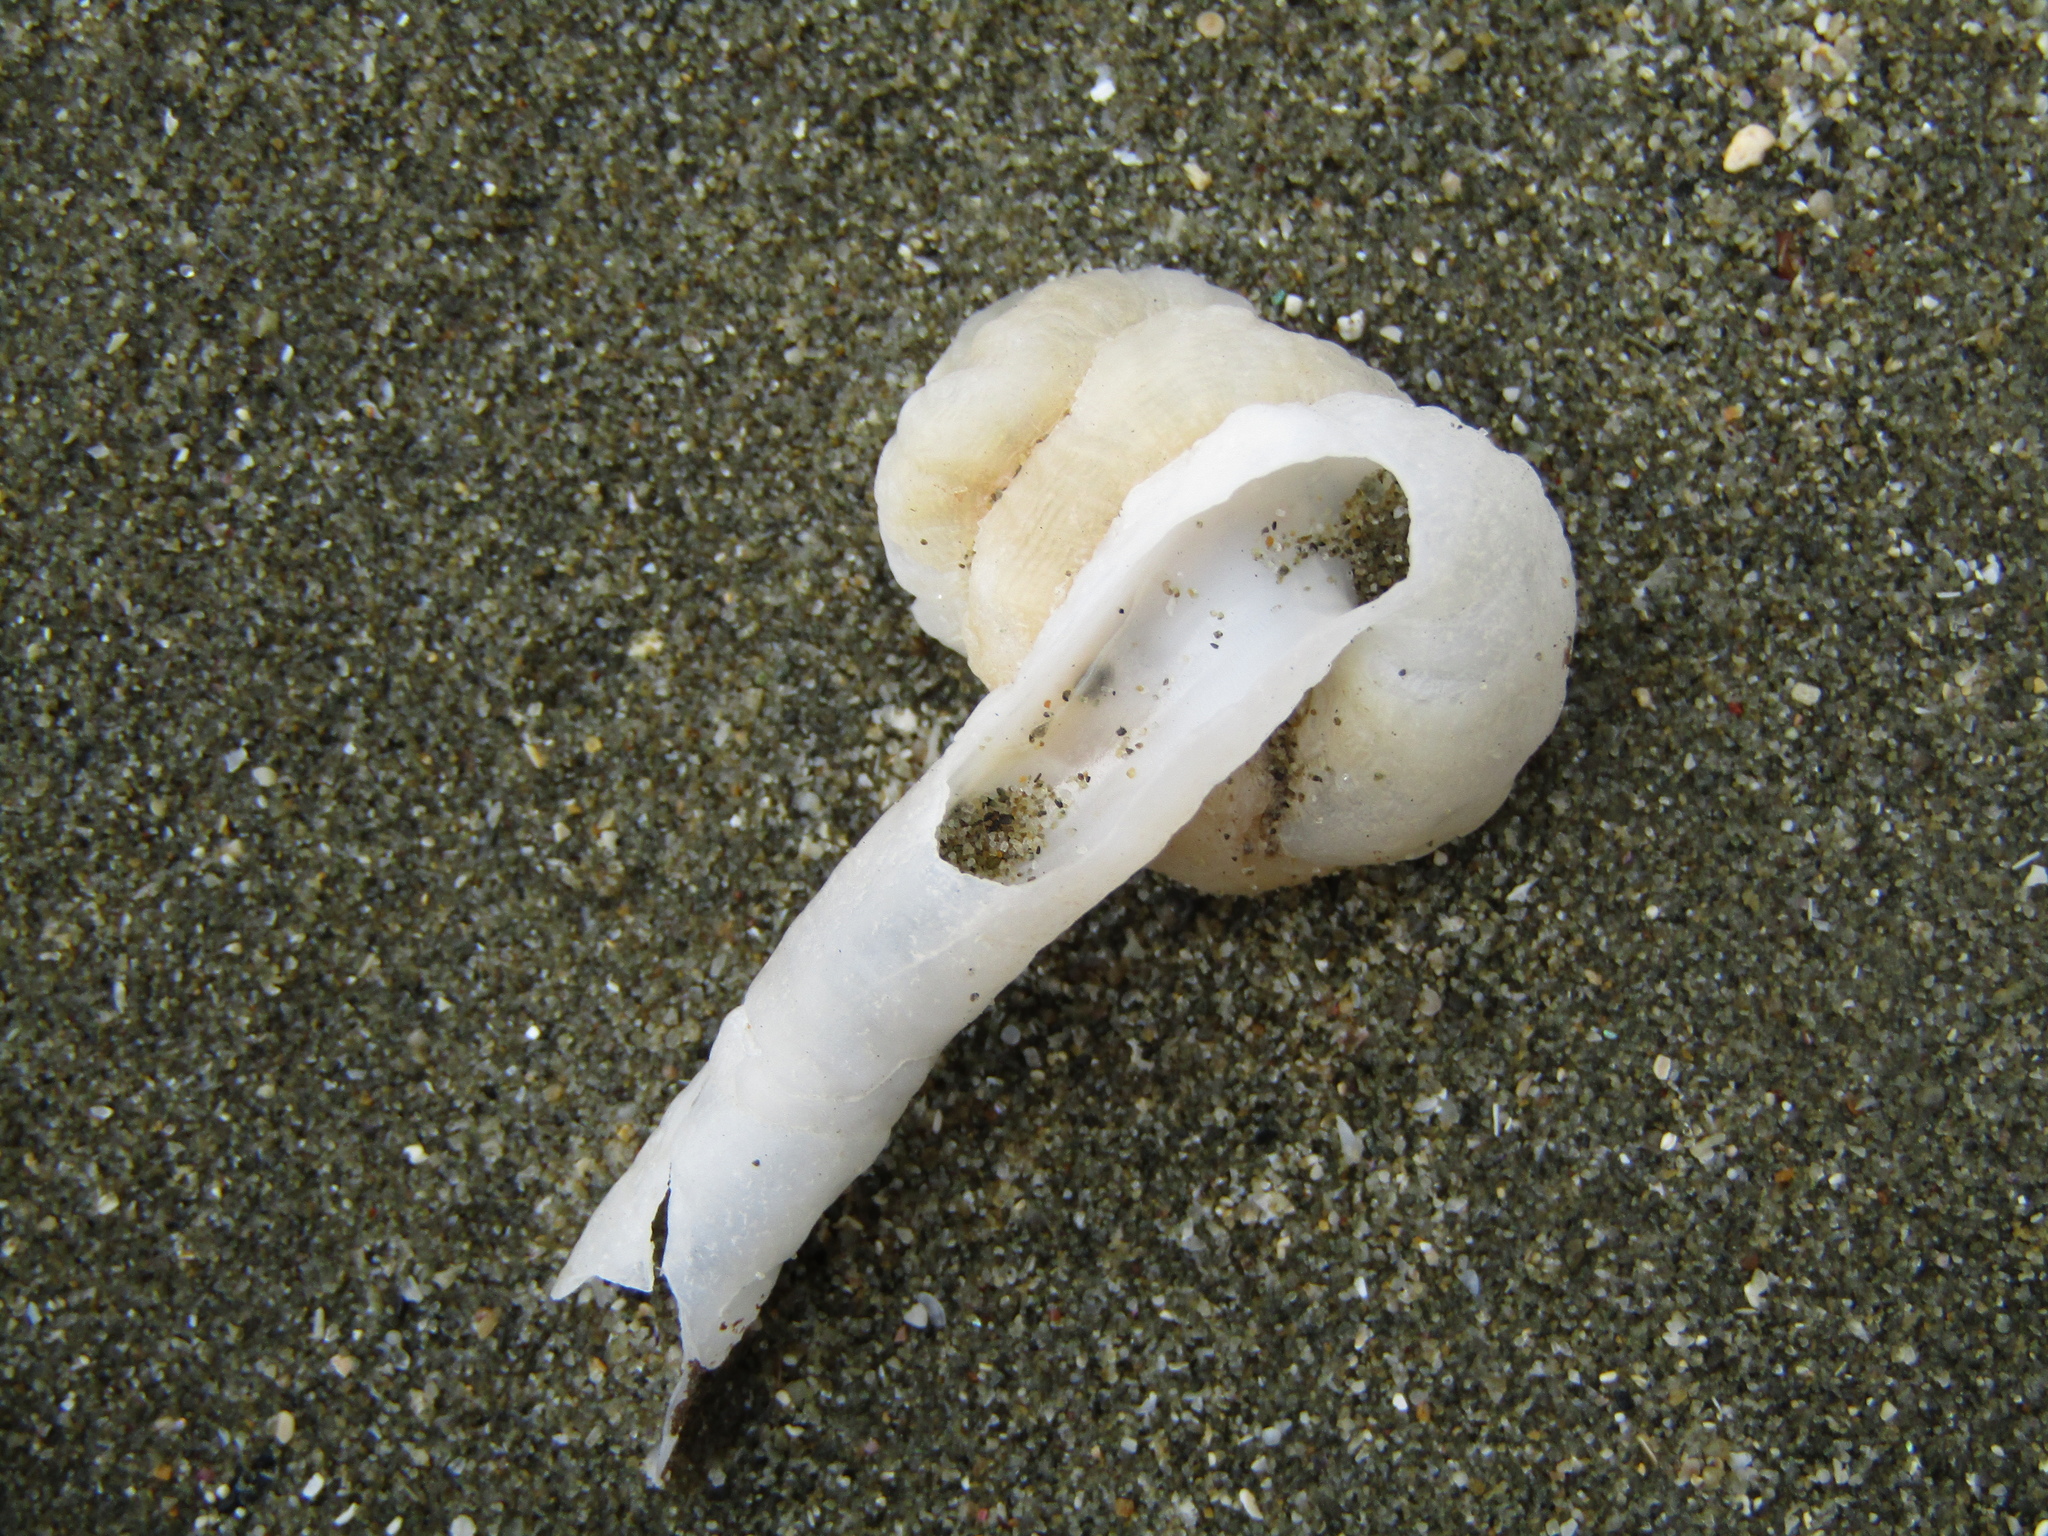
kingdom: Animalia
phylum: Mollusca
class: Gastropoda
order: Littorinimorpha
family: Vermetidae
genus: Thylacodes
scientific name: Thylacodes zelandicus
